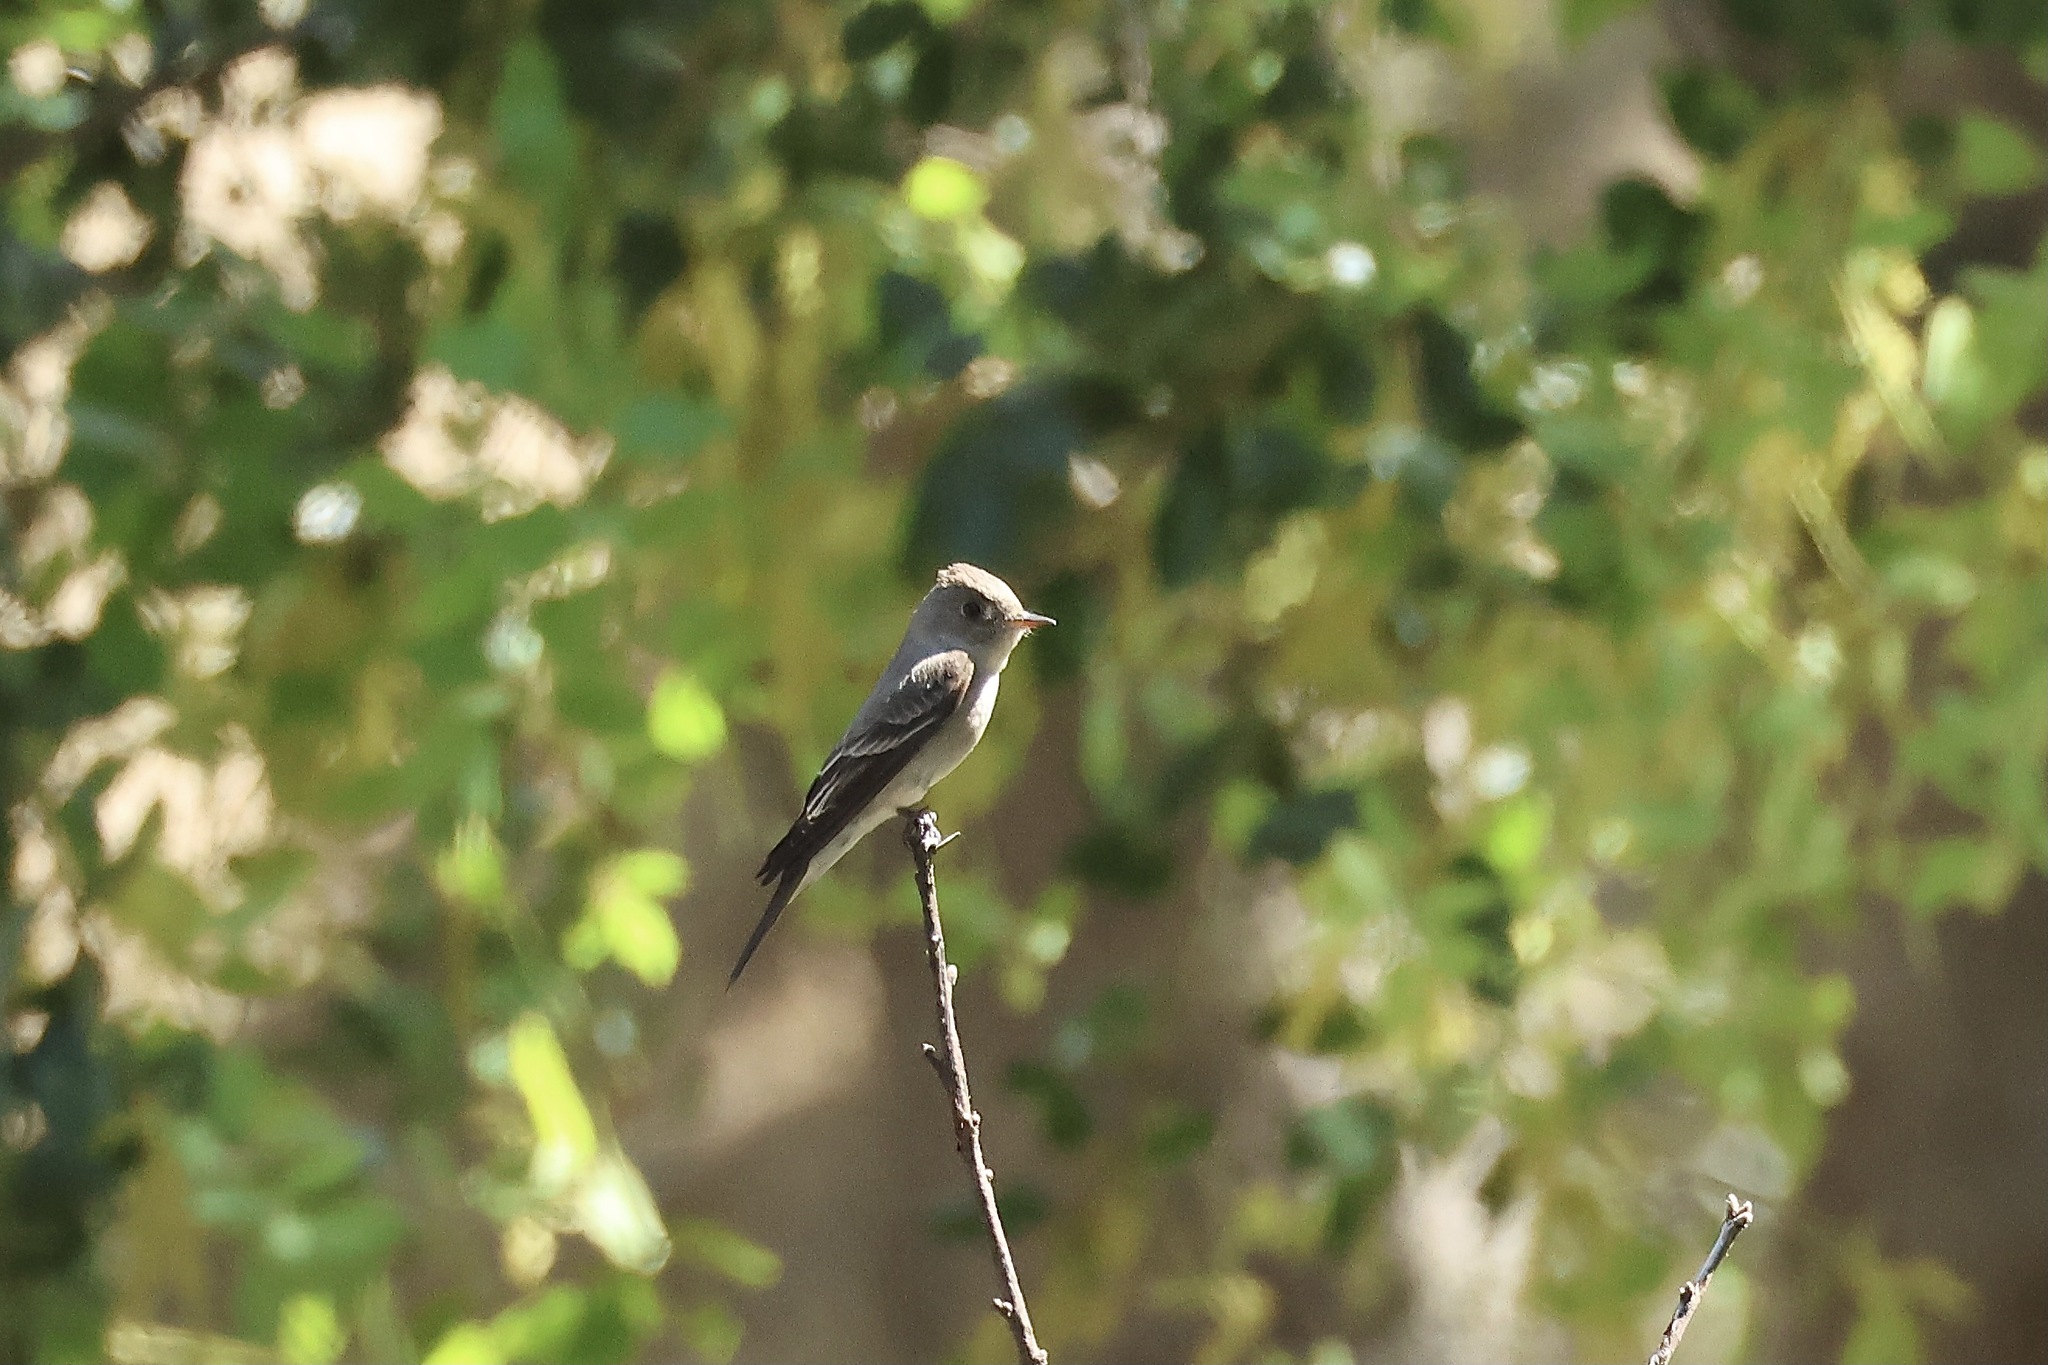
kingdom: Animalia
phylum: Chordata
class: Aves
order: Passeriformes
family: Tyrannidae
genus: Contopus
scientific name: Contopus sordidulus
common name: Western wood-pewee
